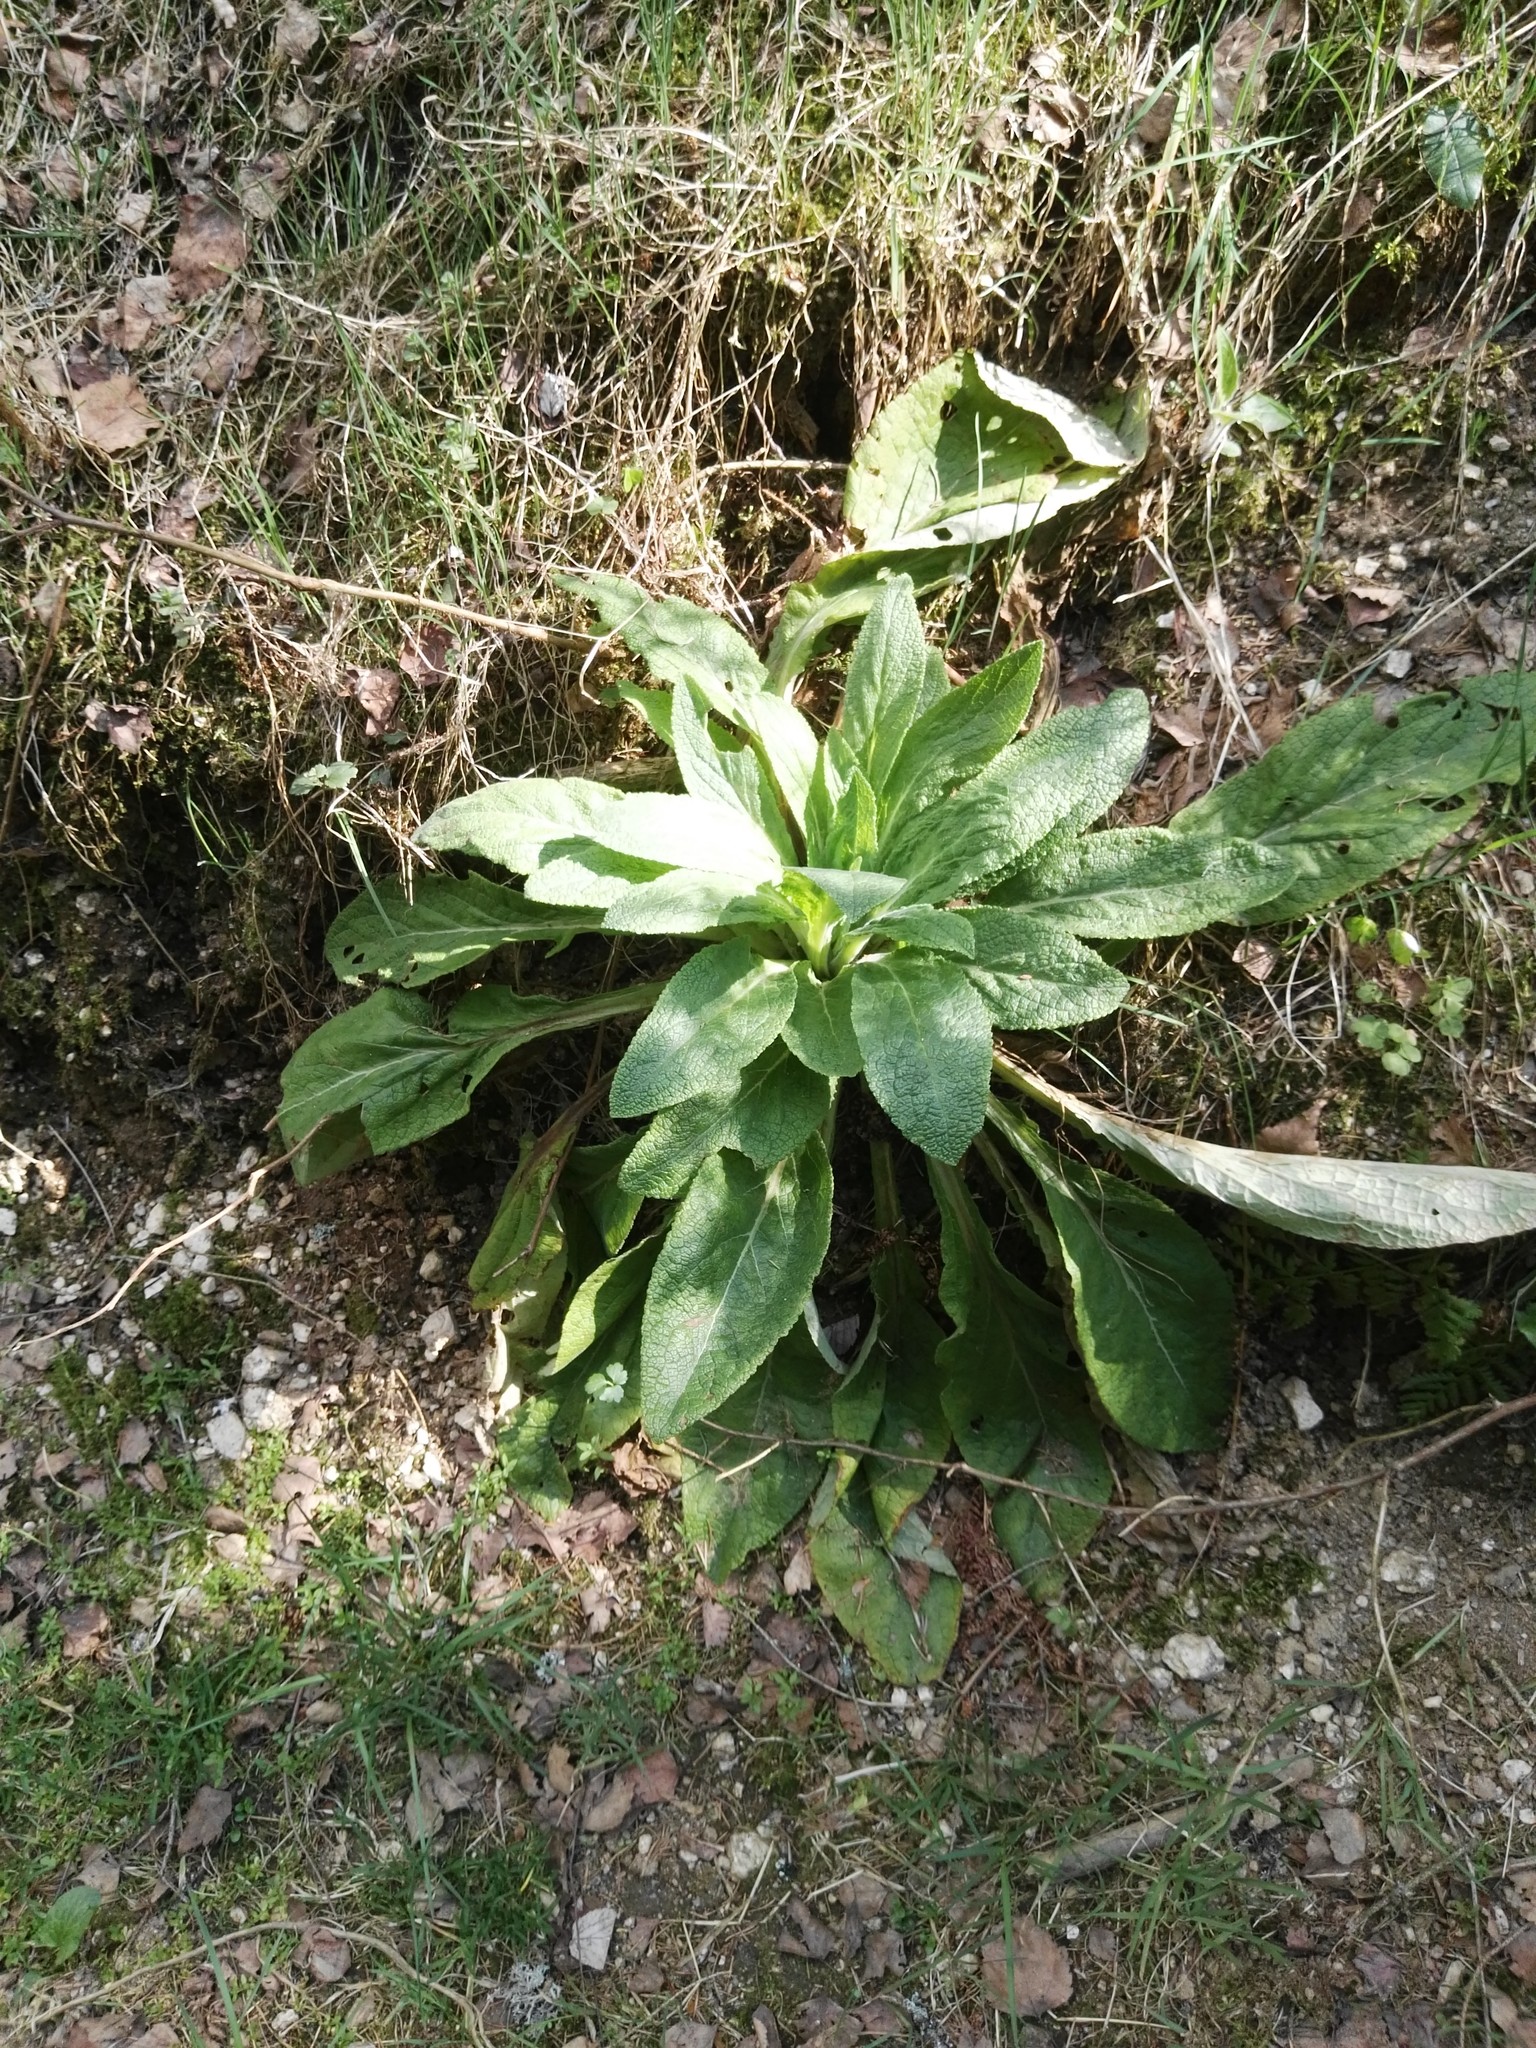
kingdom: Plantae
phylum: Tracheophyta
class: Magnoliopsida
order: Lamiales
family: Plantaginaceae
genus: Digitalis
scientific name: Digitalis purpurea
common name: Foxglove
